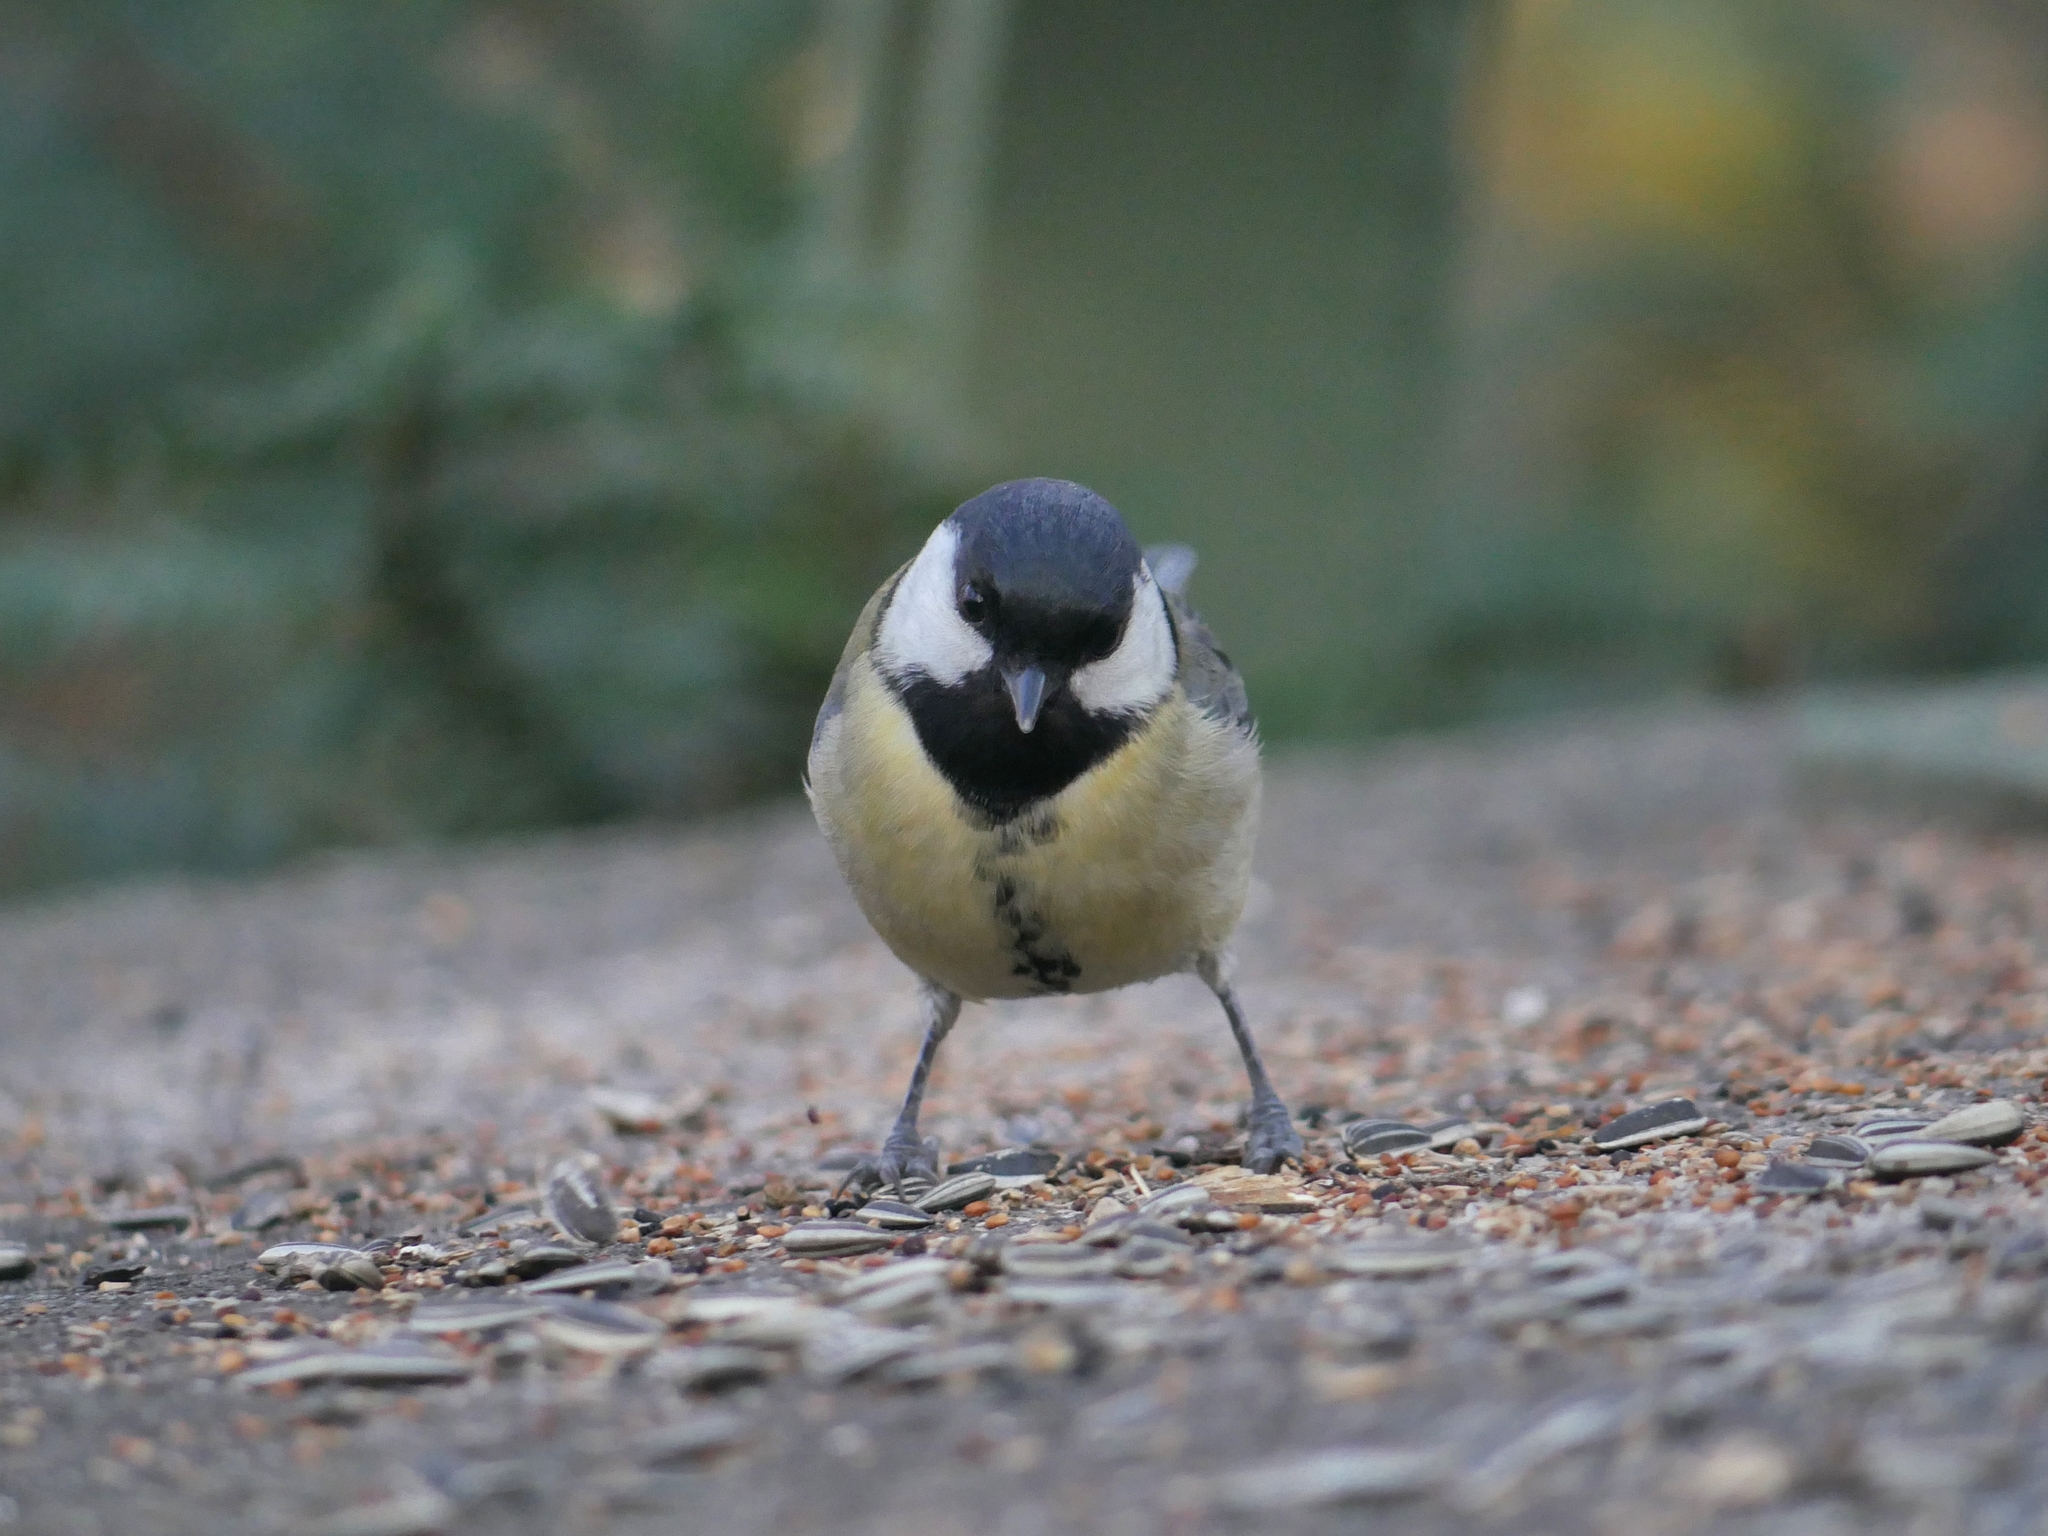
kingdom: Animalia
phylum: Chordata
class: Aves
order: Passeriformes
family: Paridae
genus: Parus
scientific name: Parus major
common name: Great tit
